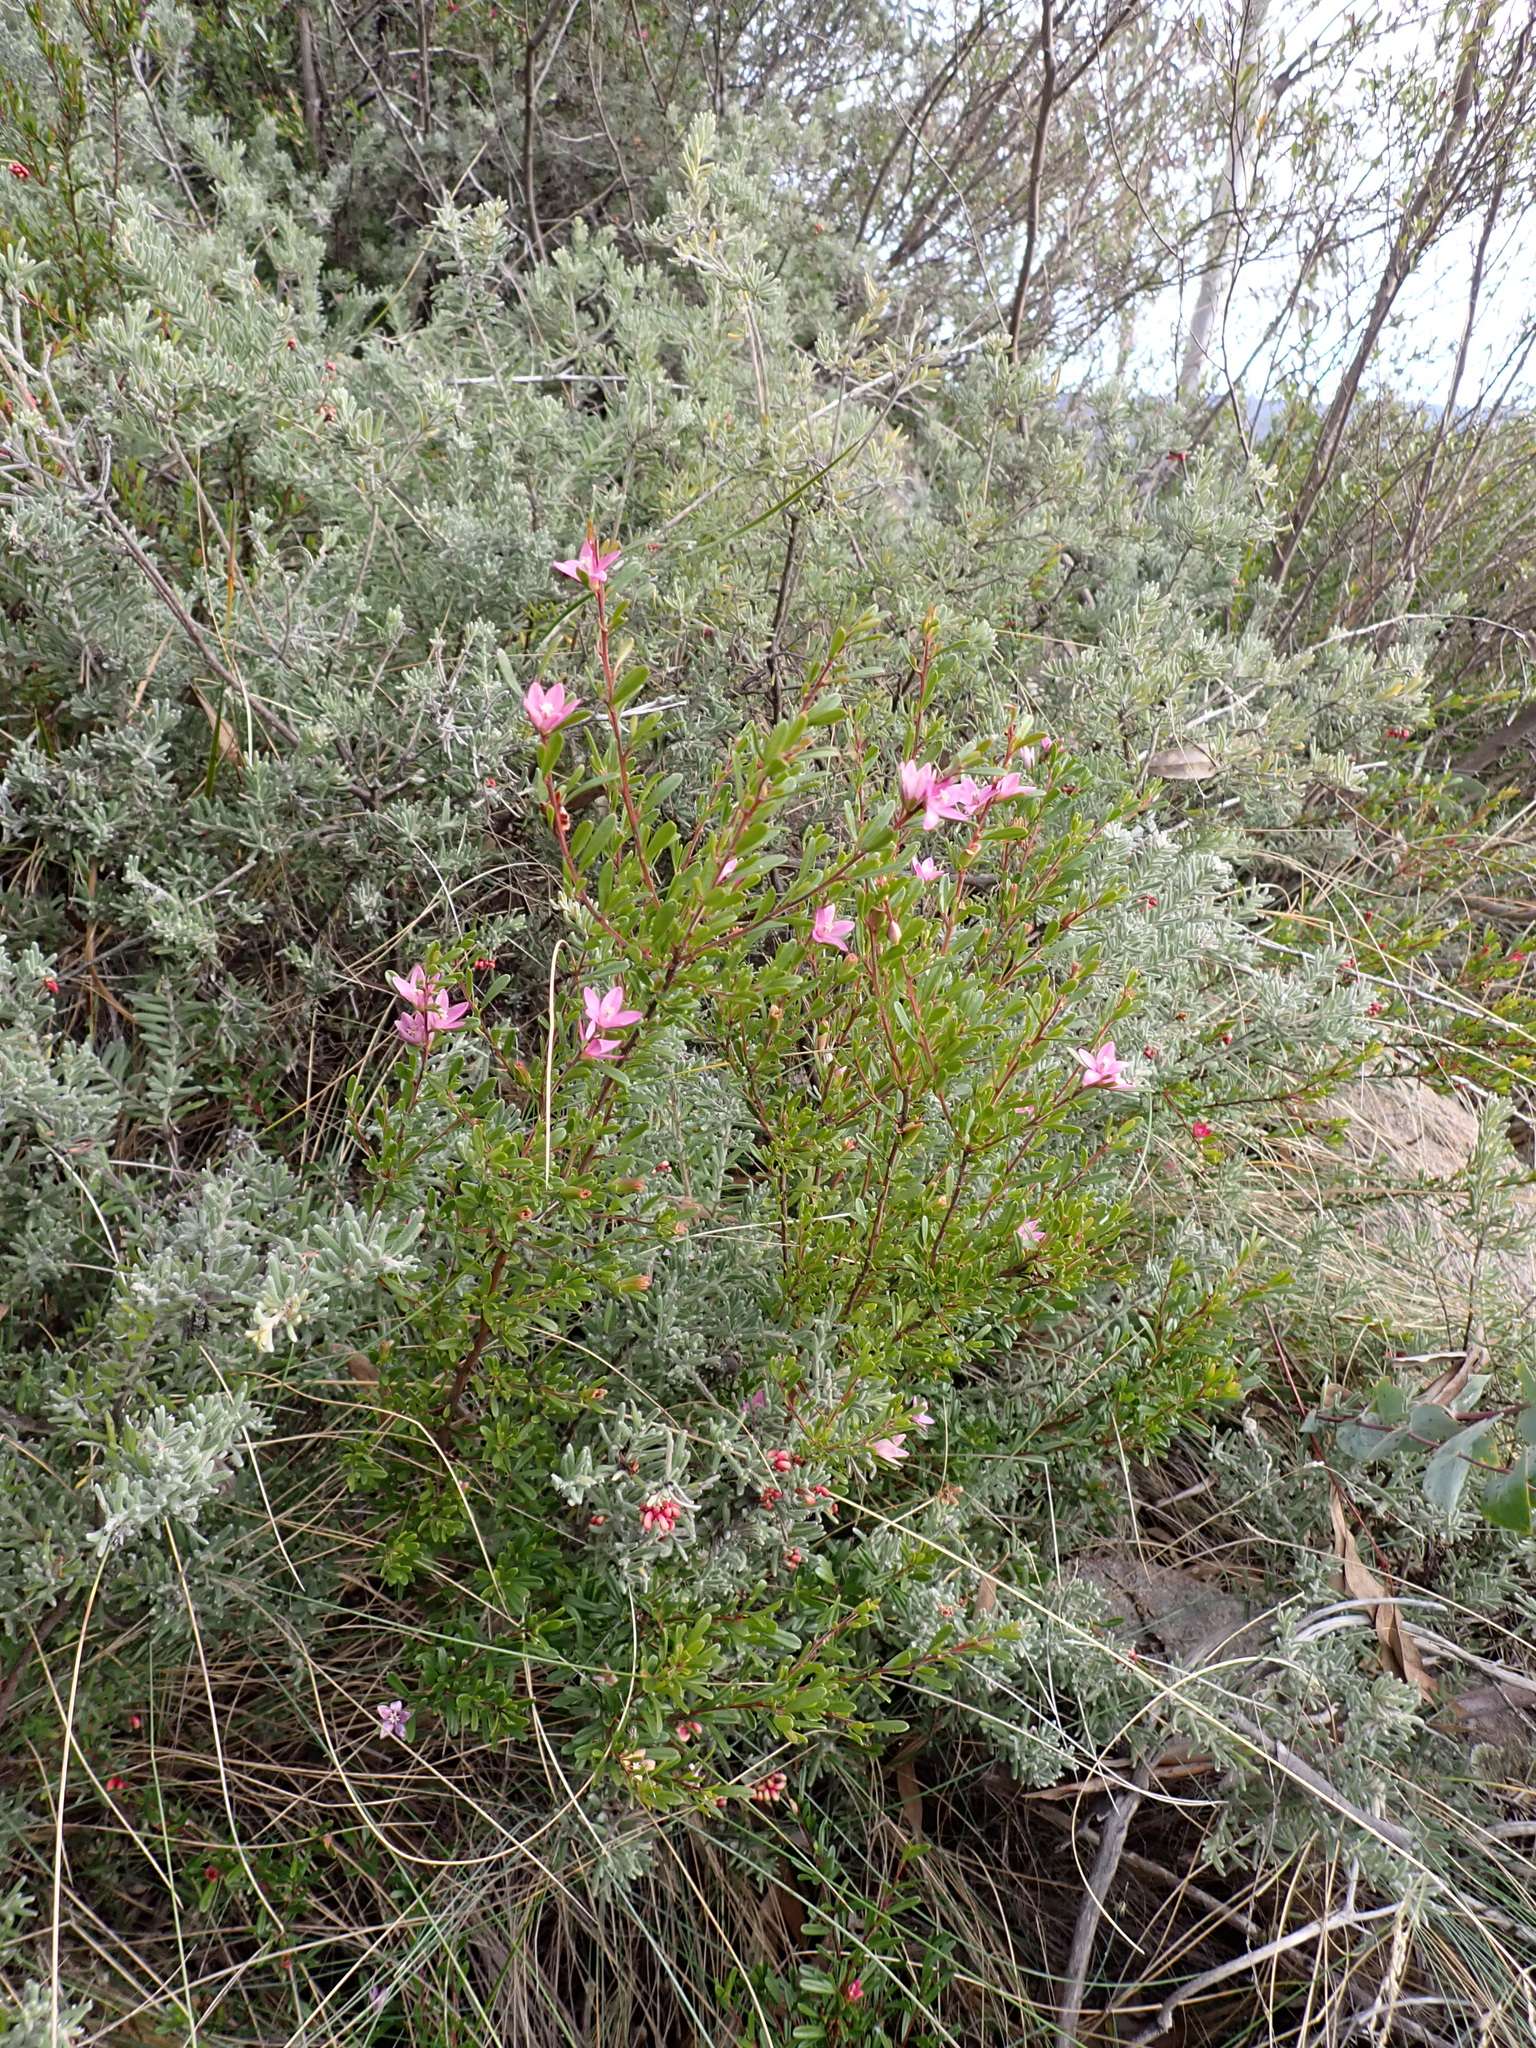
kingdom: Plantae
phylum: Tracheophyta
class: Magnoliopsida
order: Sapindales
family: Rutaceae
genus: Crowea
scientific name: Crowea exalata
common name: Small crowea
